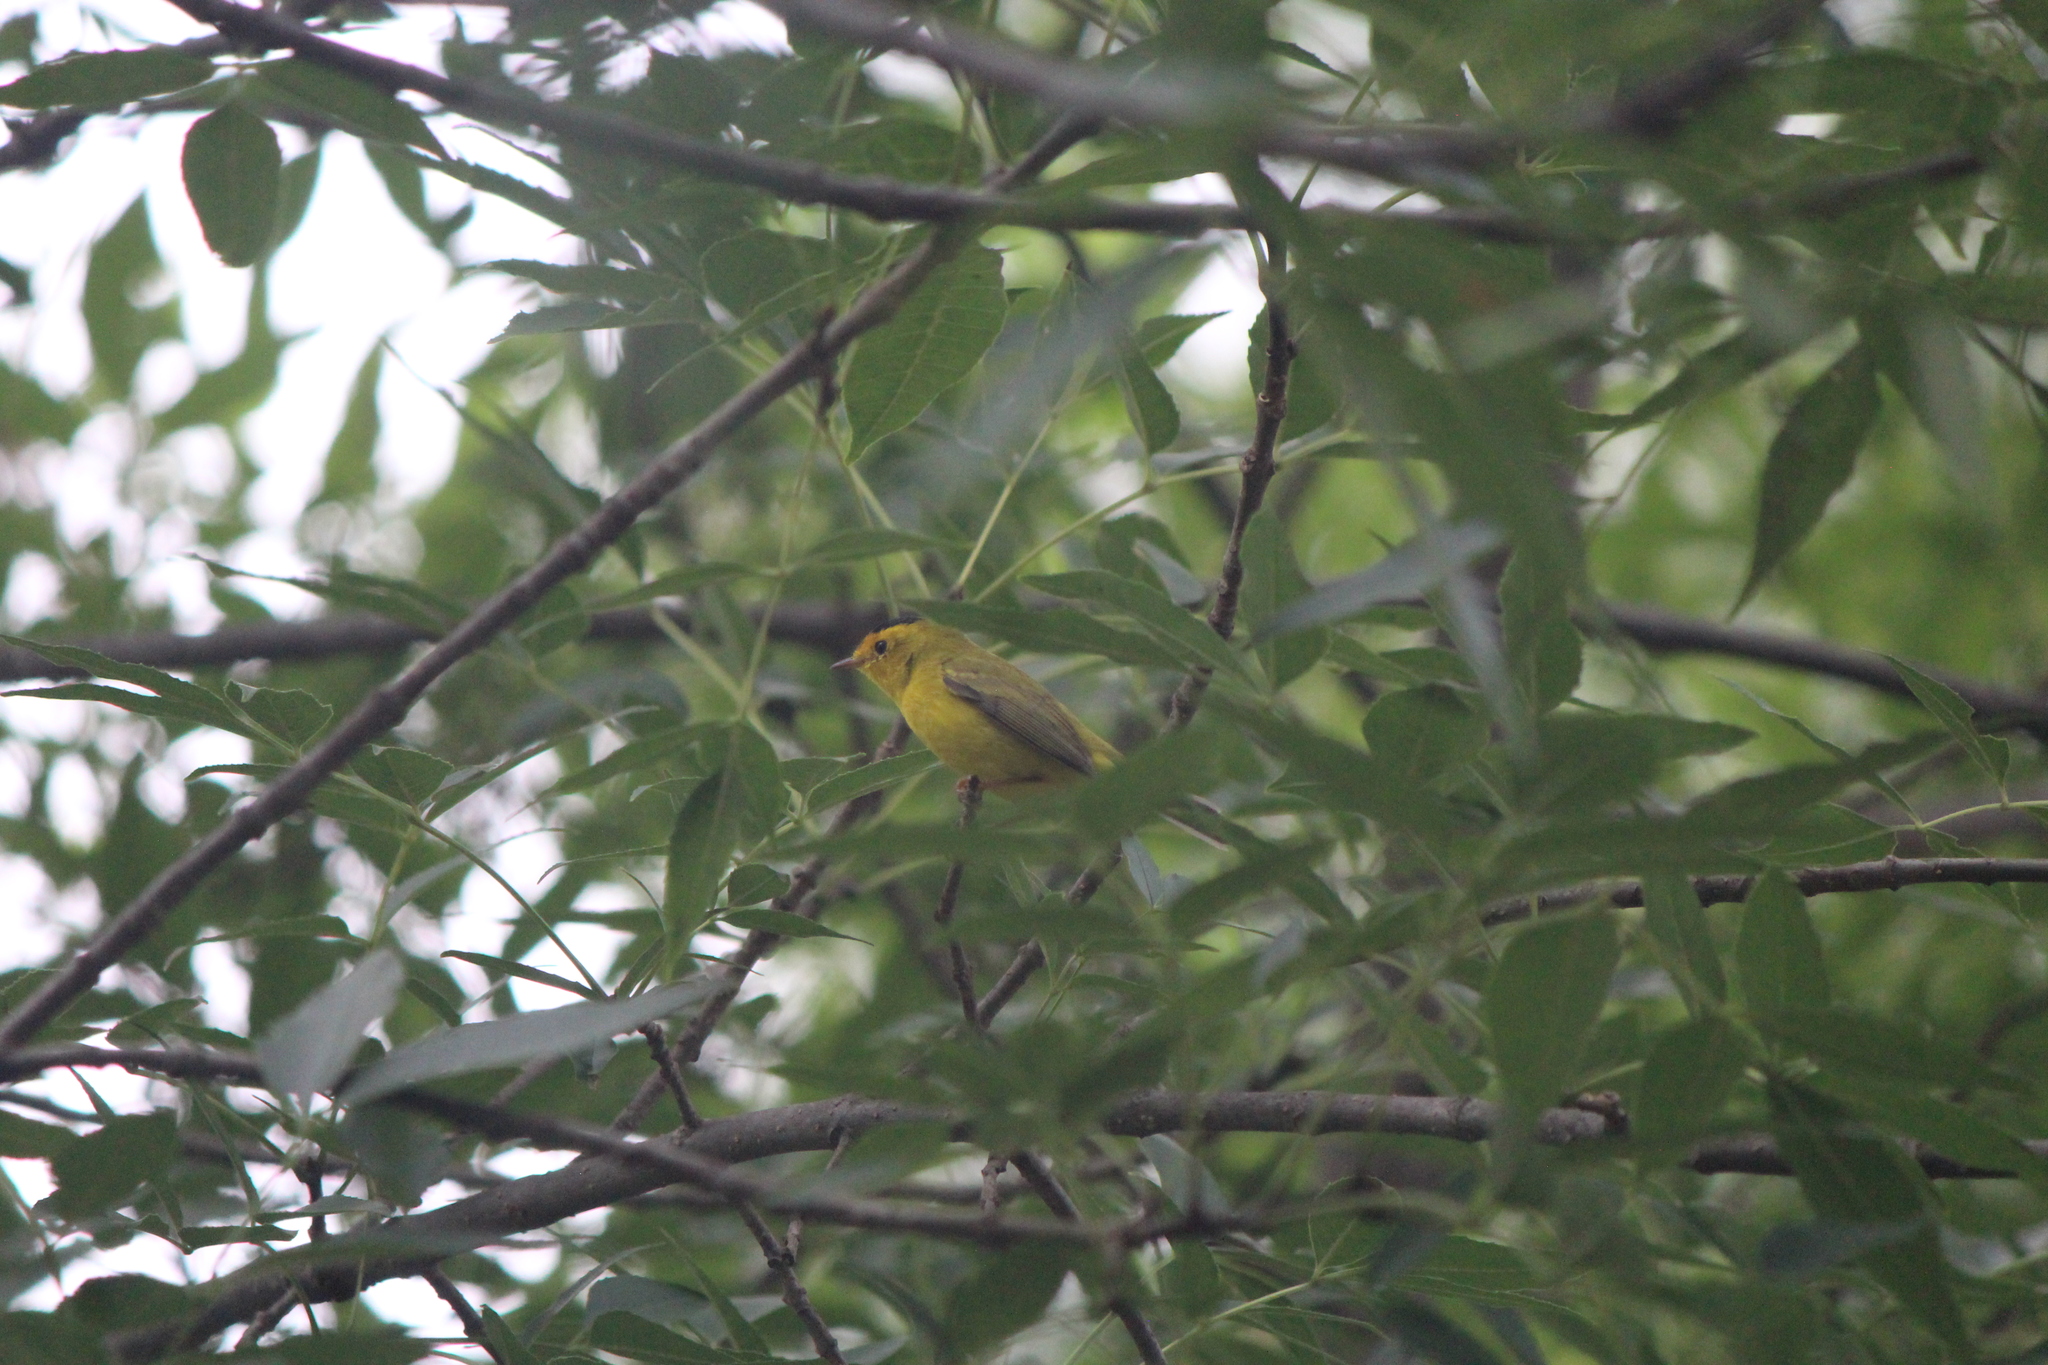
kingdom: Animalia
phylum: Chordata
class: Aves
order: Passeriformes
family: Parulidae
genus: Cardellina
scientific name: Cardellina pusilla
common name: Wilson's warbler
